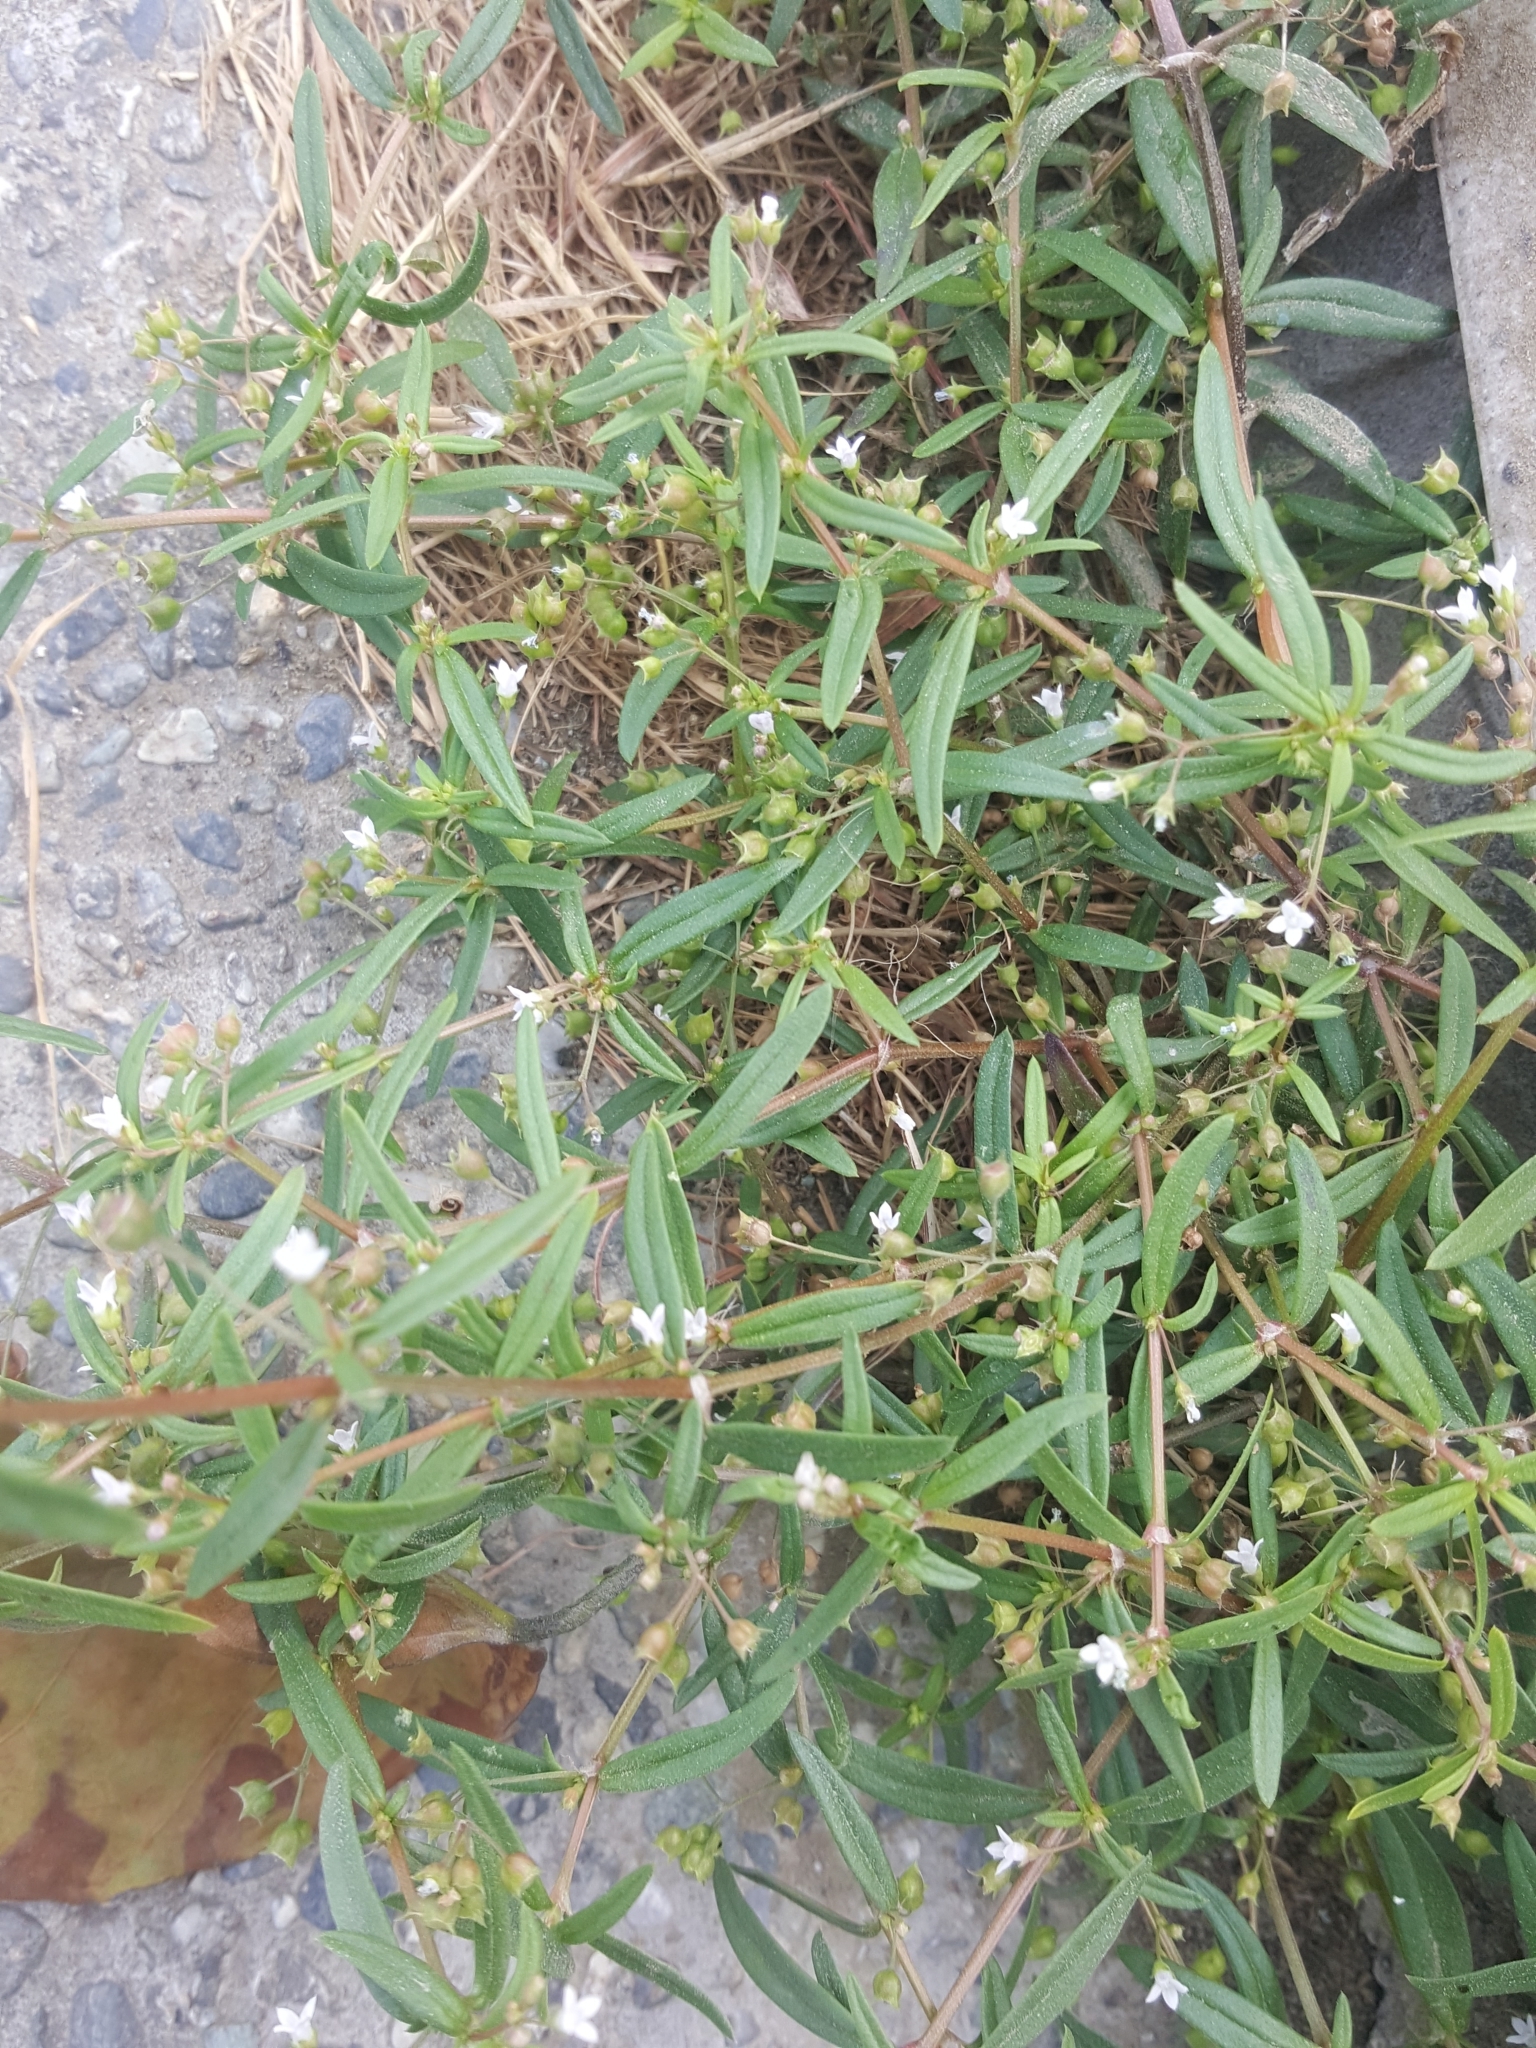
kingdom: Plantae
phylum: Tracheophyta
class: Magnoliopsida
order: Gentianales
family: Rubiaceae
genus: Oldenlandia
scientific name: Oldenlandia corymbosa
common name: Flat-top mille graines
